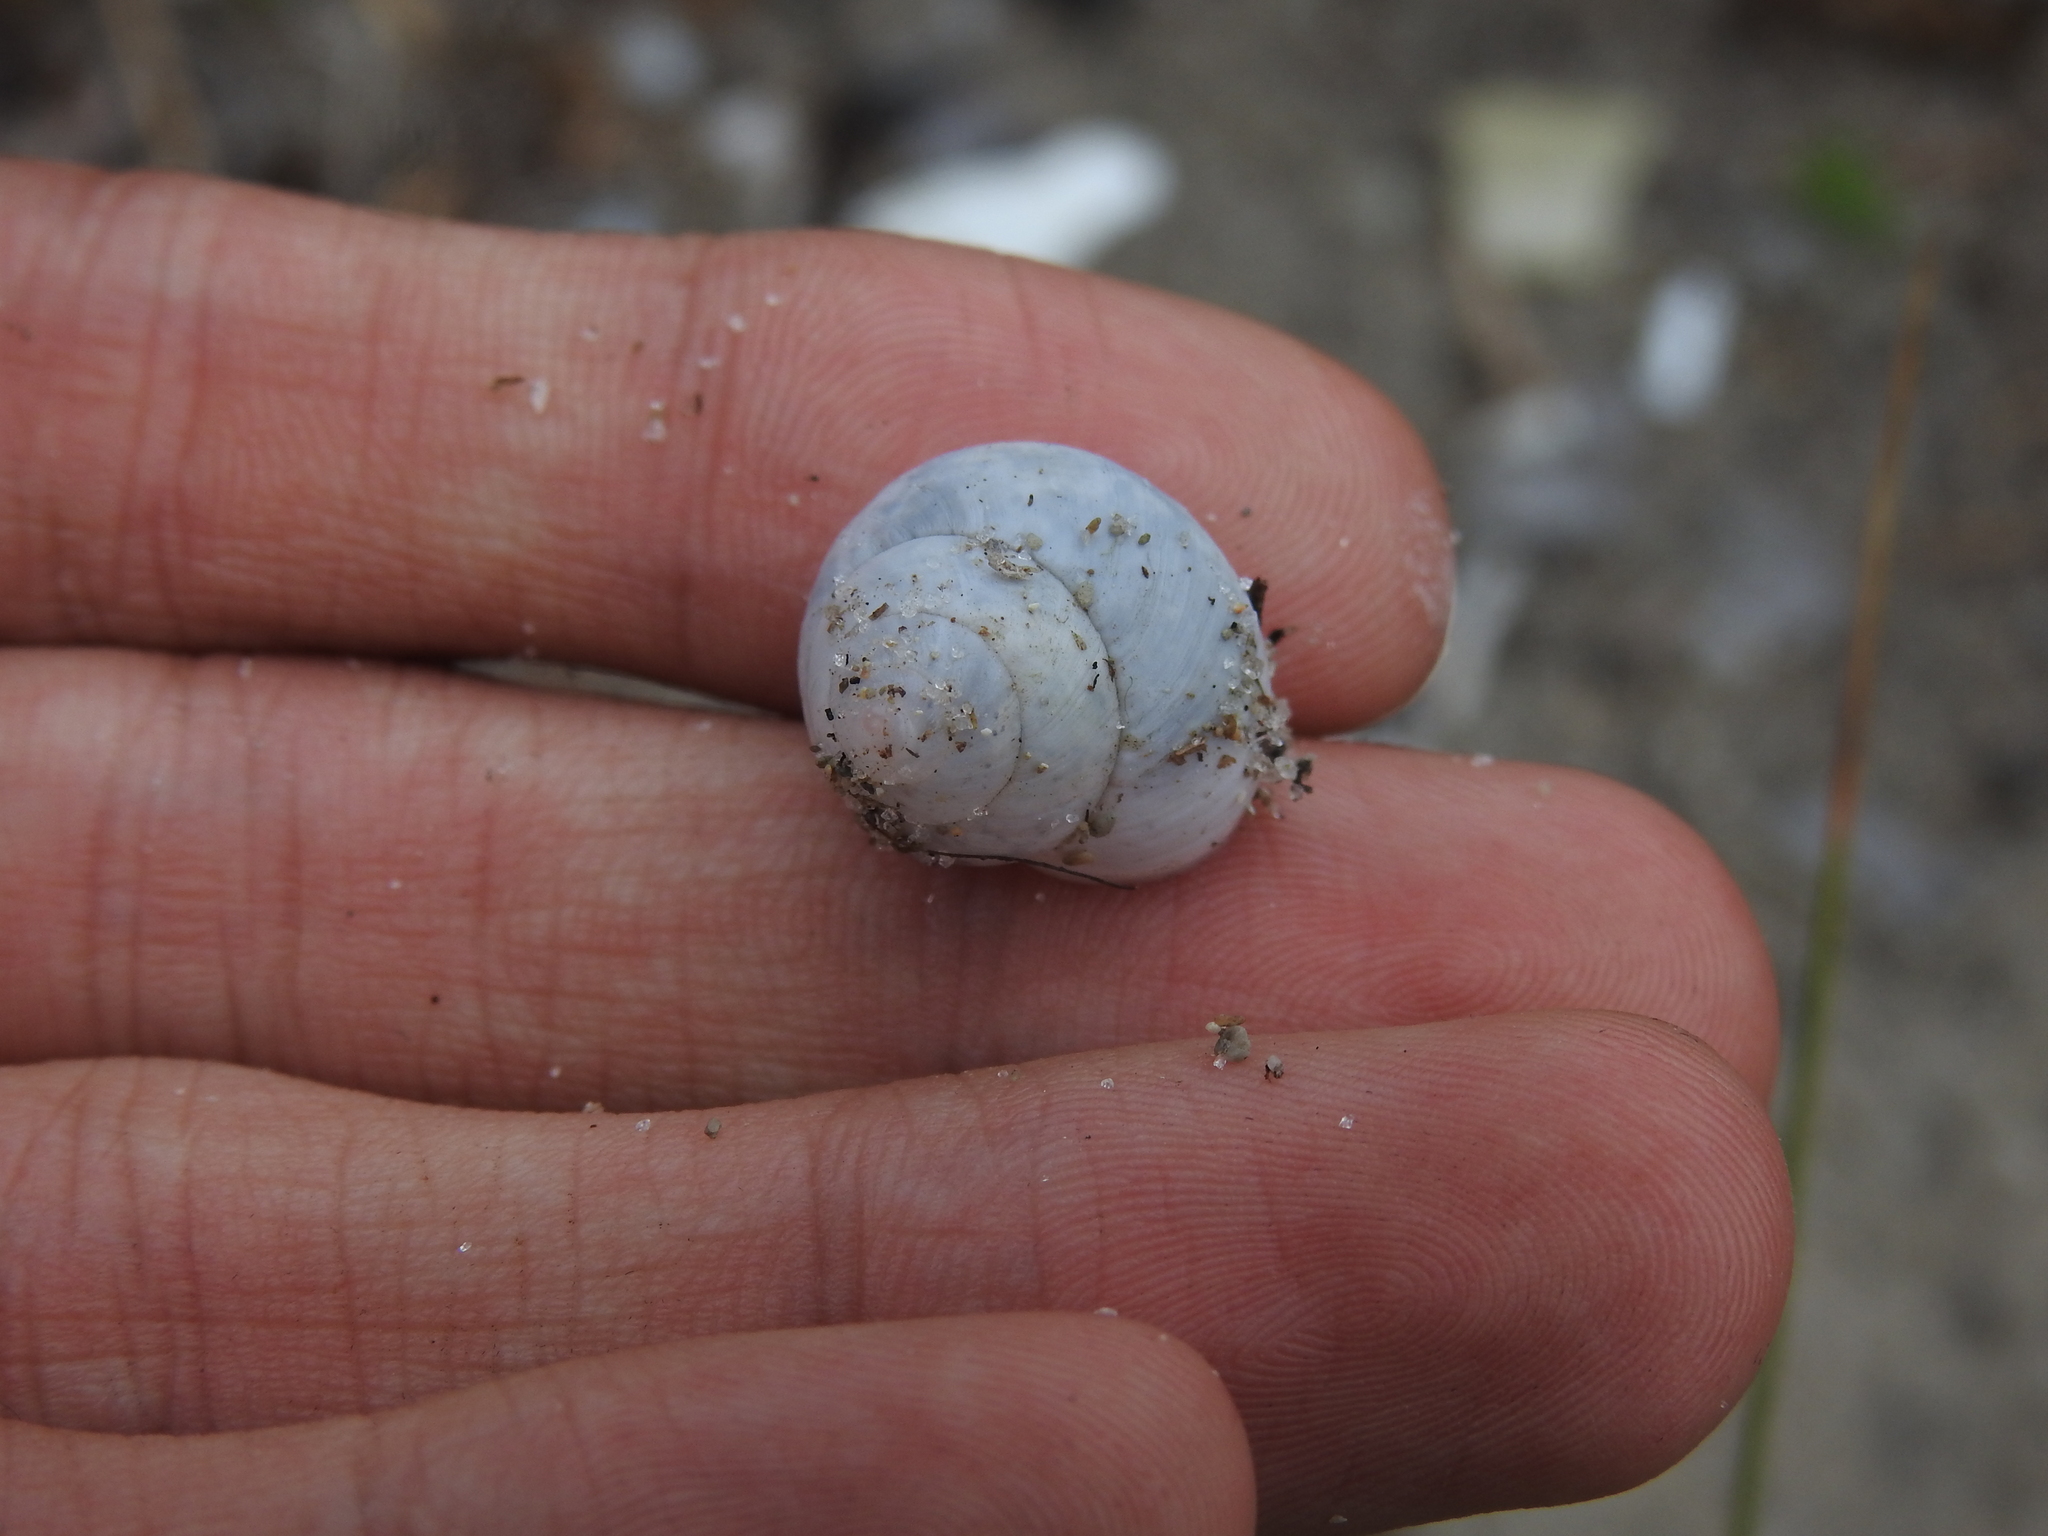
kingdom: Animalia
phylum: Mollusca
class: Gastropoda
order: Stylommatophora
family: Zachrysiidae
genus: Zachrysia
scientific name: Zachrysia provisoria
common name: Garden zachrysia
